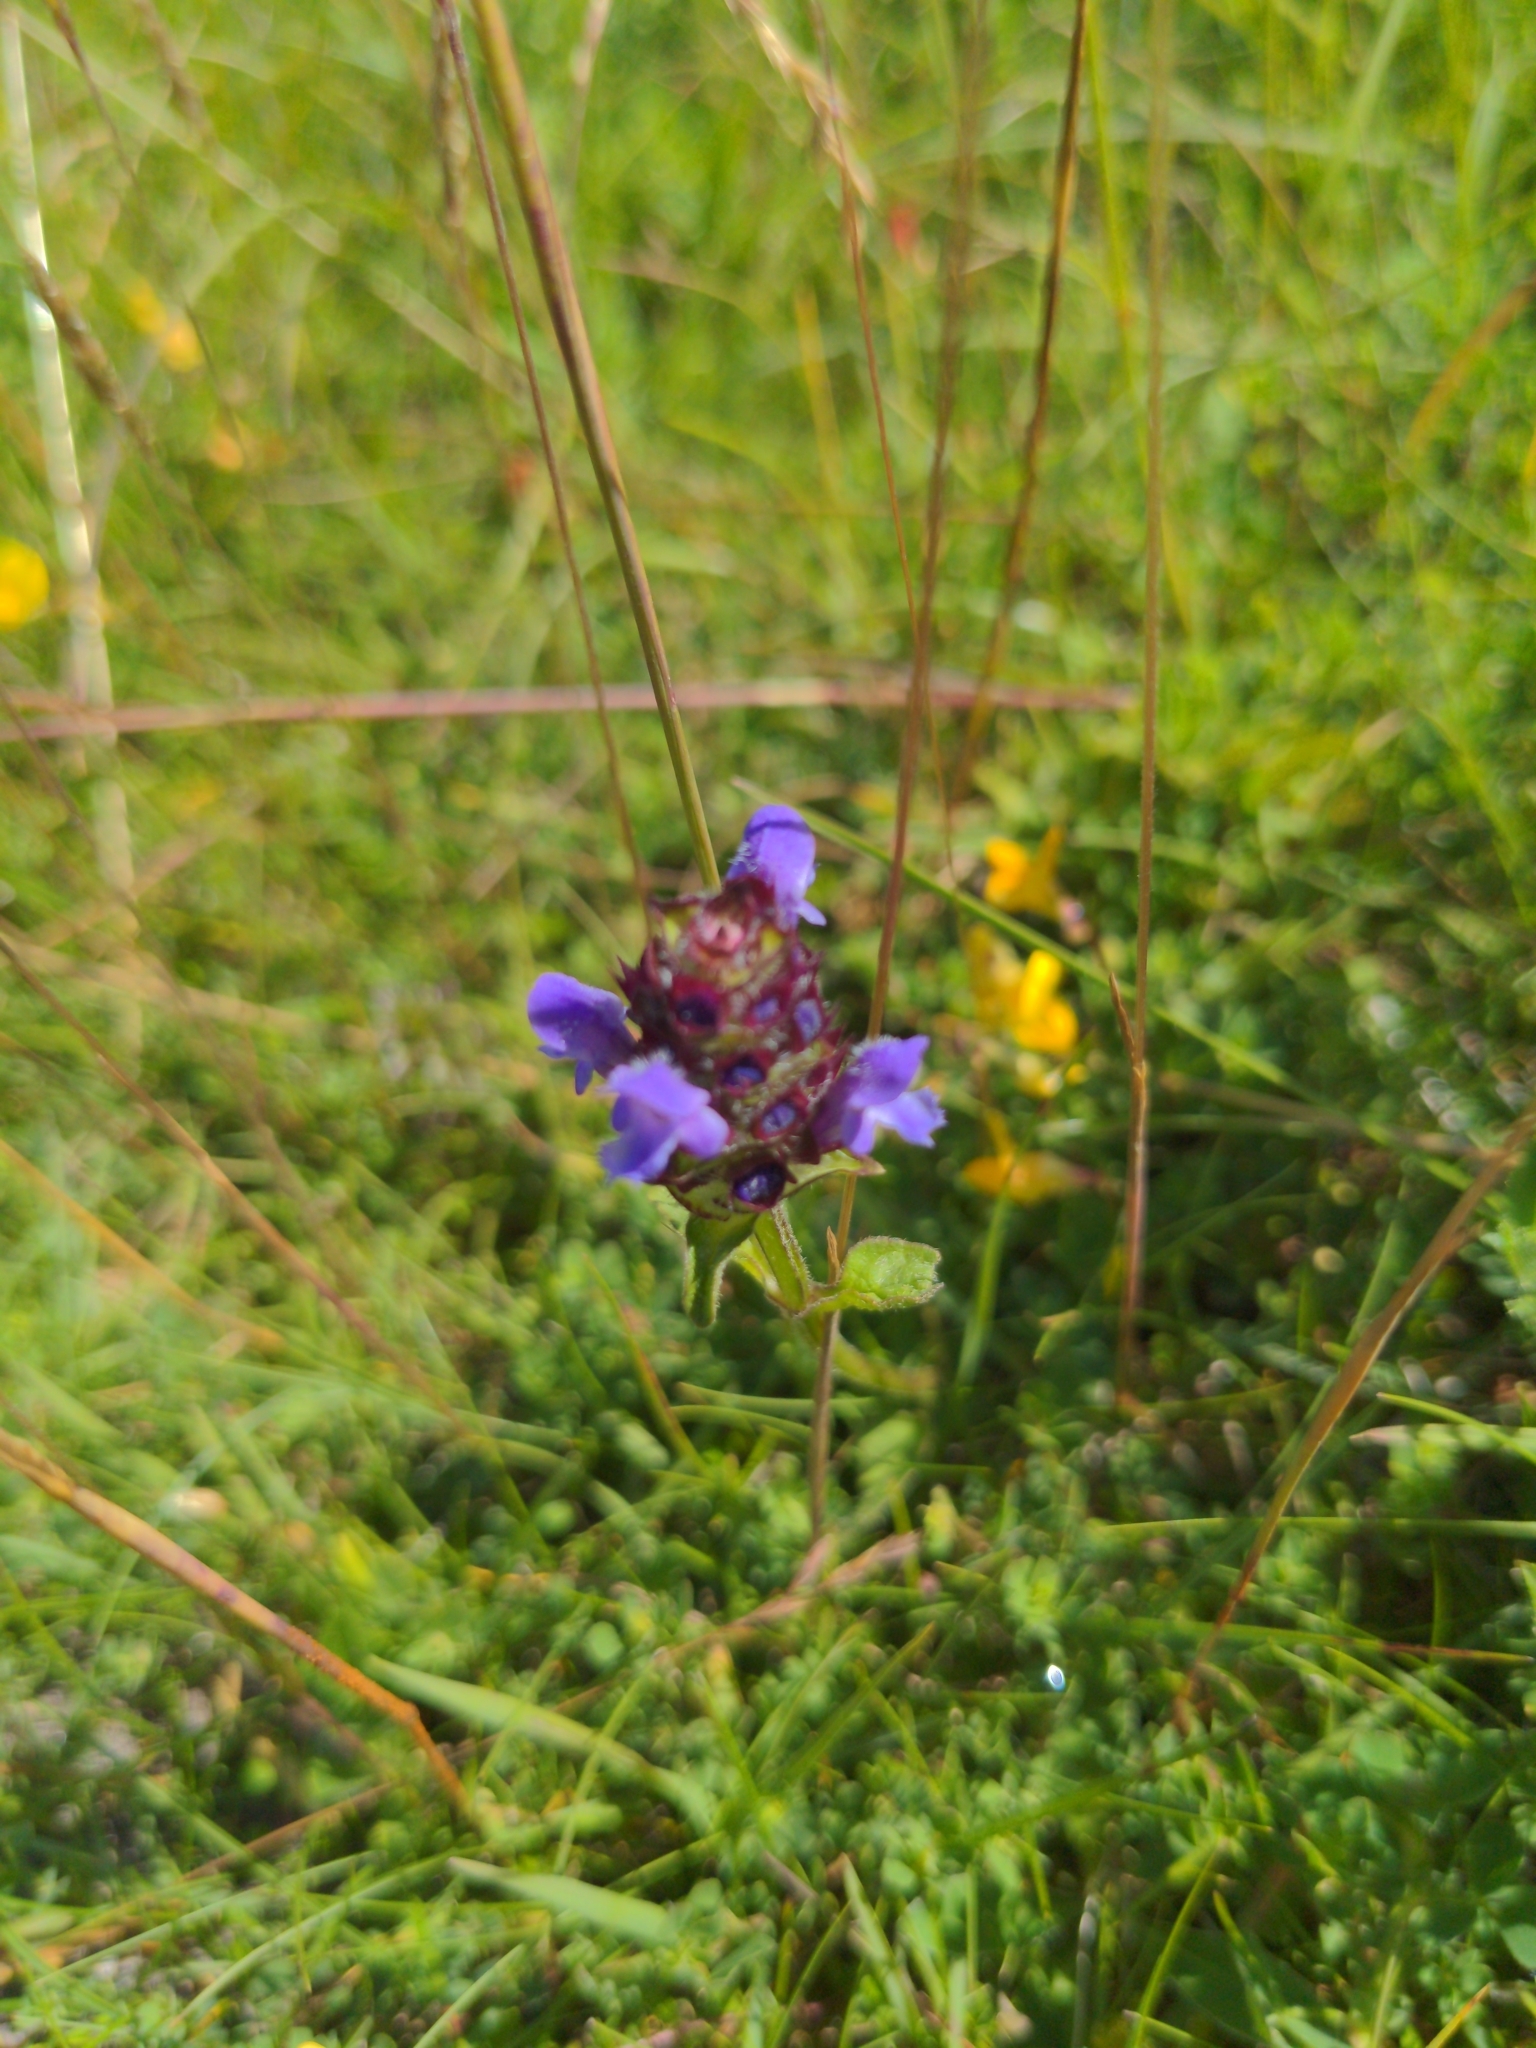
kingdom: Plantae
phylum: Tracheophyta
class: Magnoliopsida
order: Lamiales
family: Lamiaceae
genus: Prunella
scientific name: Prunella vulgaris
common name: Heal-all
